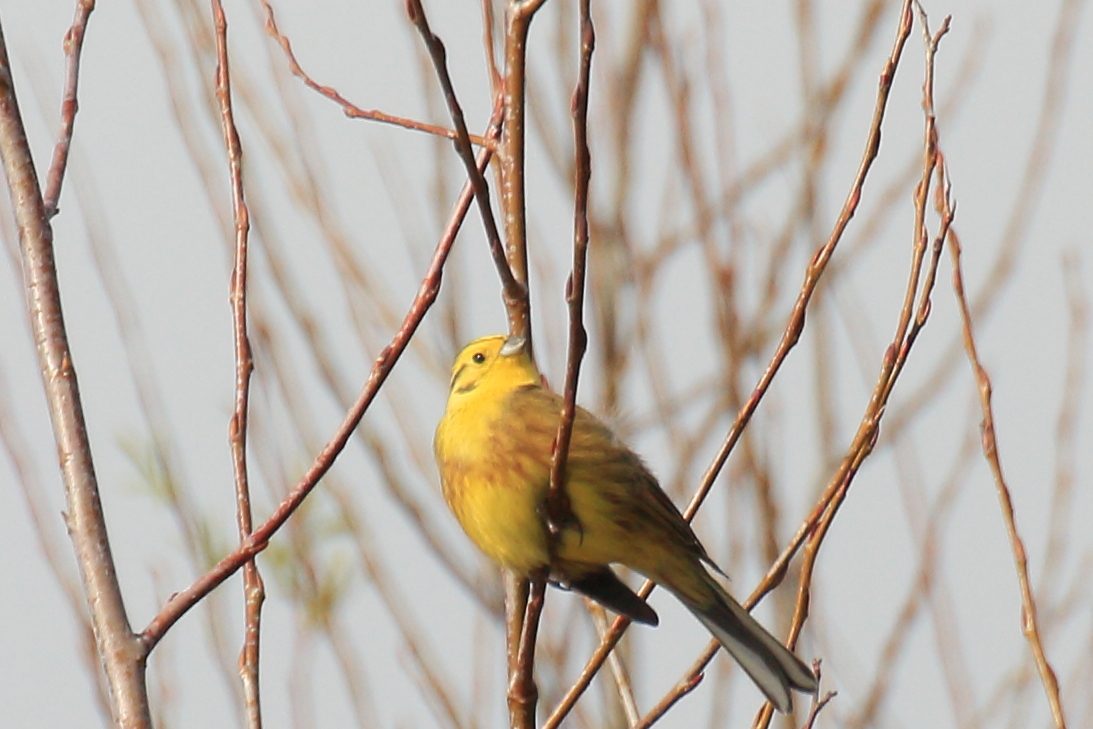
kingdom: Animalia
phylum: Chordata
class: Aves
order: Passeriformes
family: Emberizidae
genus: Emberiza
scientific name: Emberiza citrinella
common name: Yellowhammer
